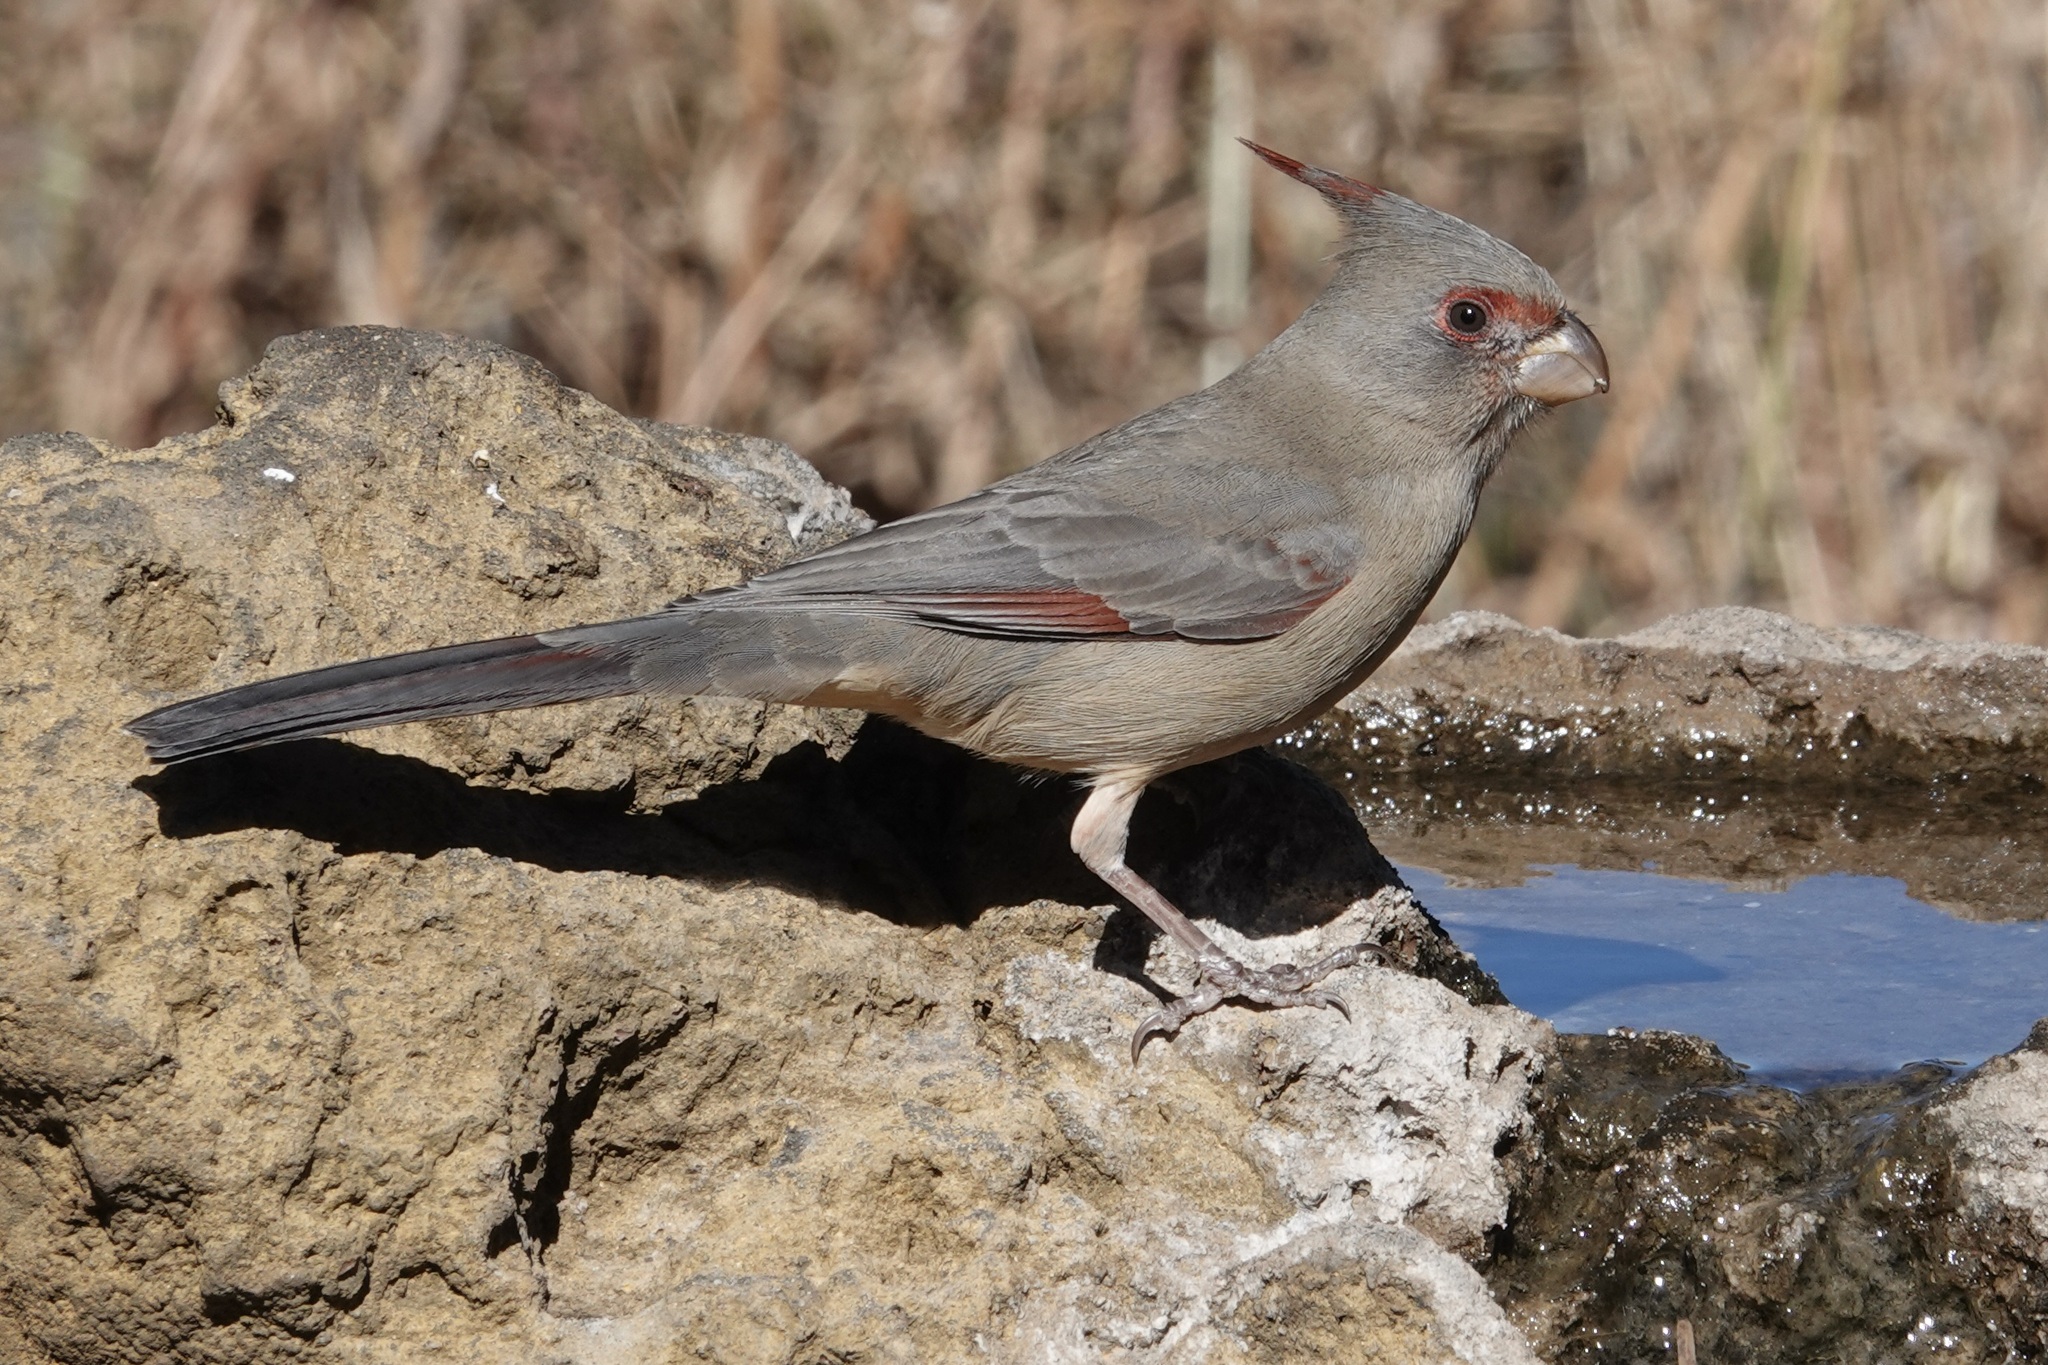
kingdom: Animalia
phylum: Chordata
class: Aves
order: Passeriformes
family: Cardinalidae
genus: Cardinalis
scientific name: Cardinalis sinuatus
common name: Pyrrhuloxia
